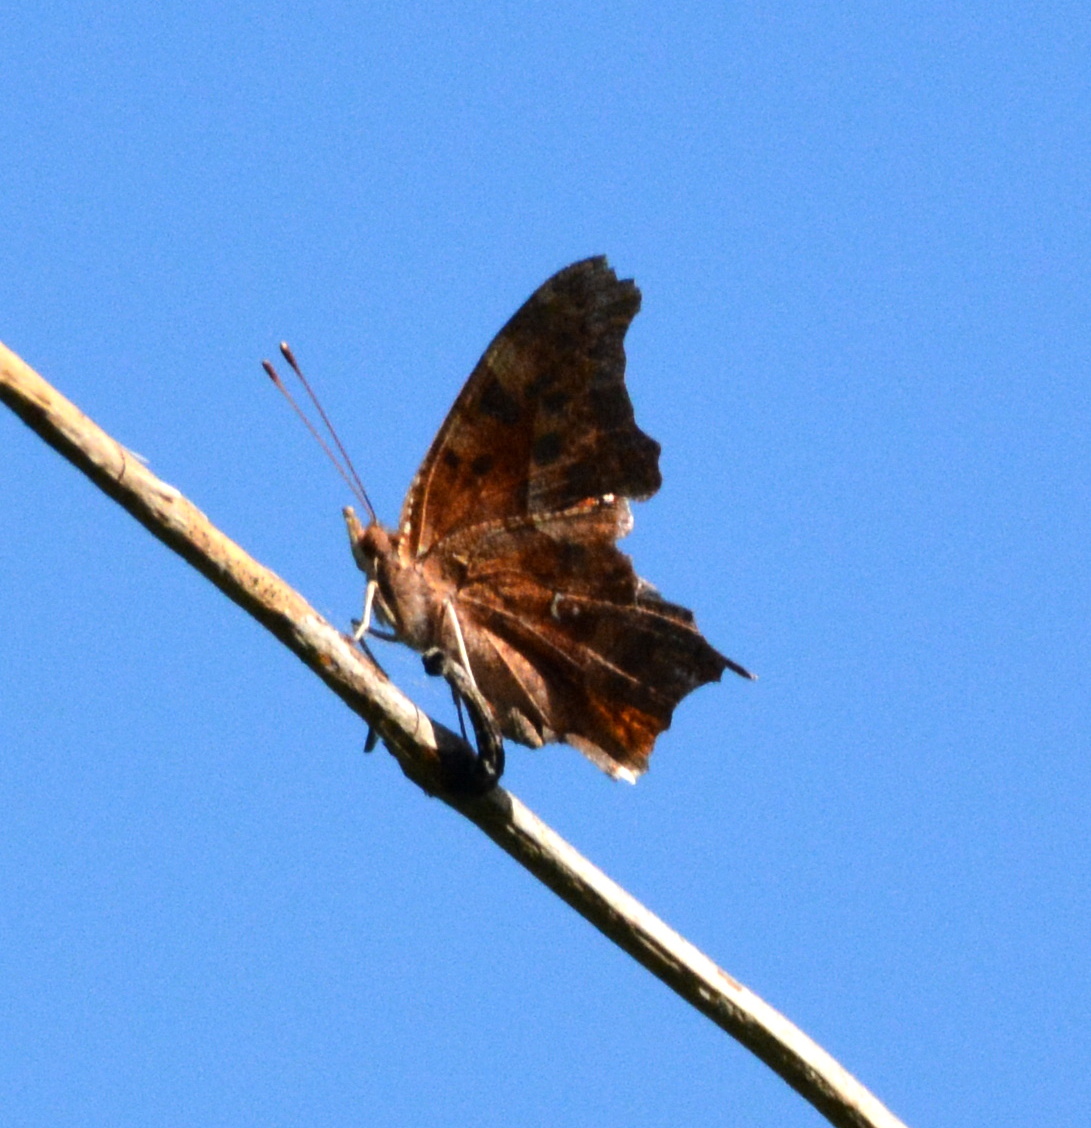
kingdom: Animalia
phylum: Arthropoda
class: Insecta
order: Lepidoptera
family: Nymphalidae
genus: Polygonia
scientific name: Polygonia interrogationis
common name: Question mark
